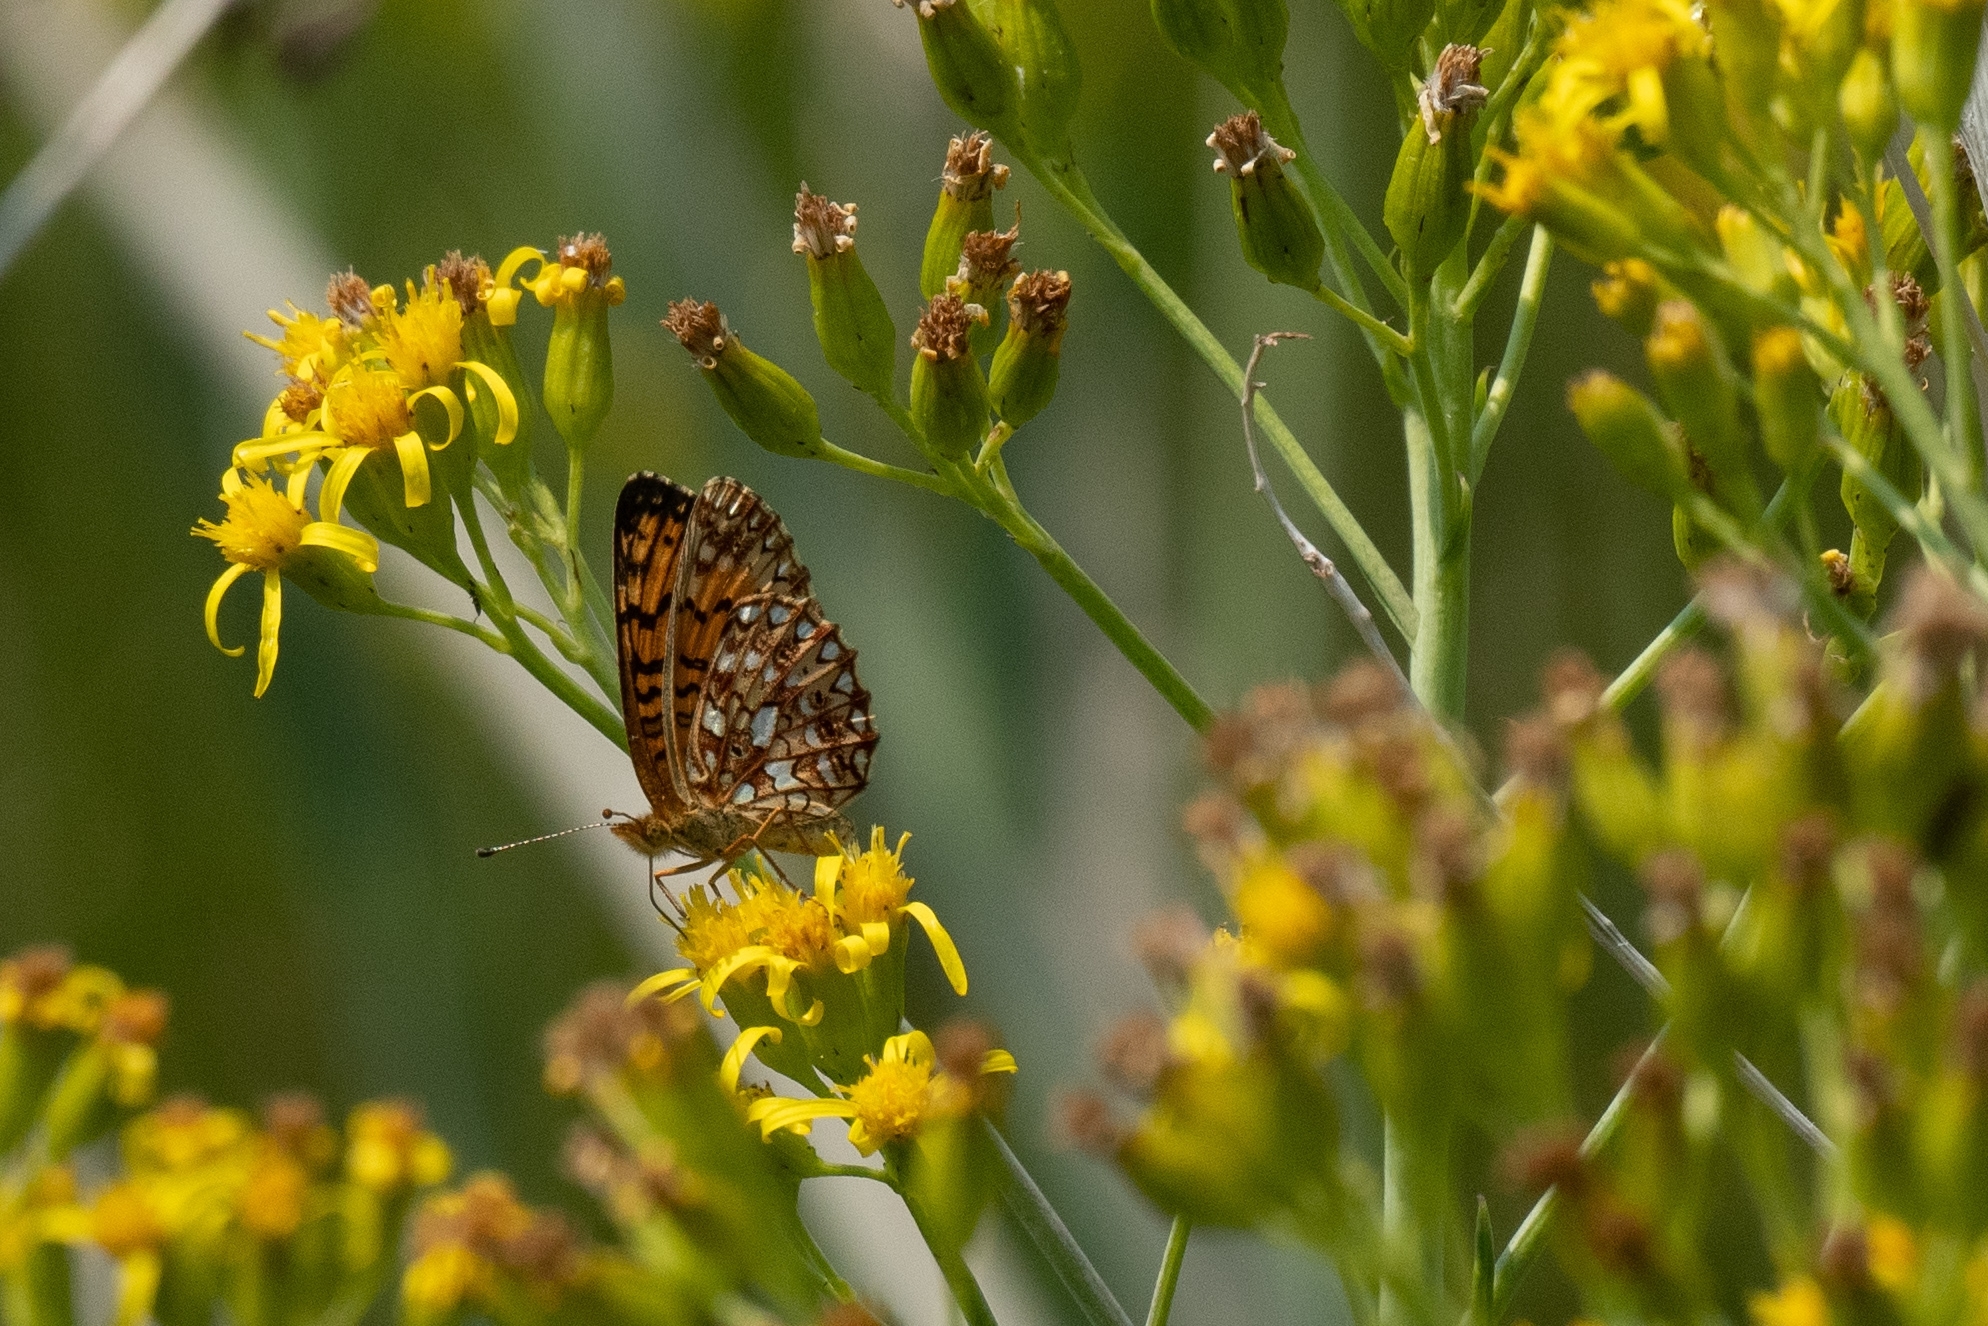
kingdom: Animalia
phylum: Arthropoda
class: Insecta
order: Lepidoptera
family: Nymphalidae
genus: Boloria
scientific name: Boloria
